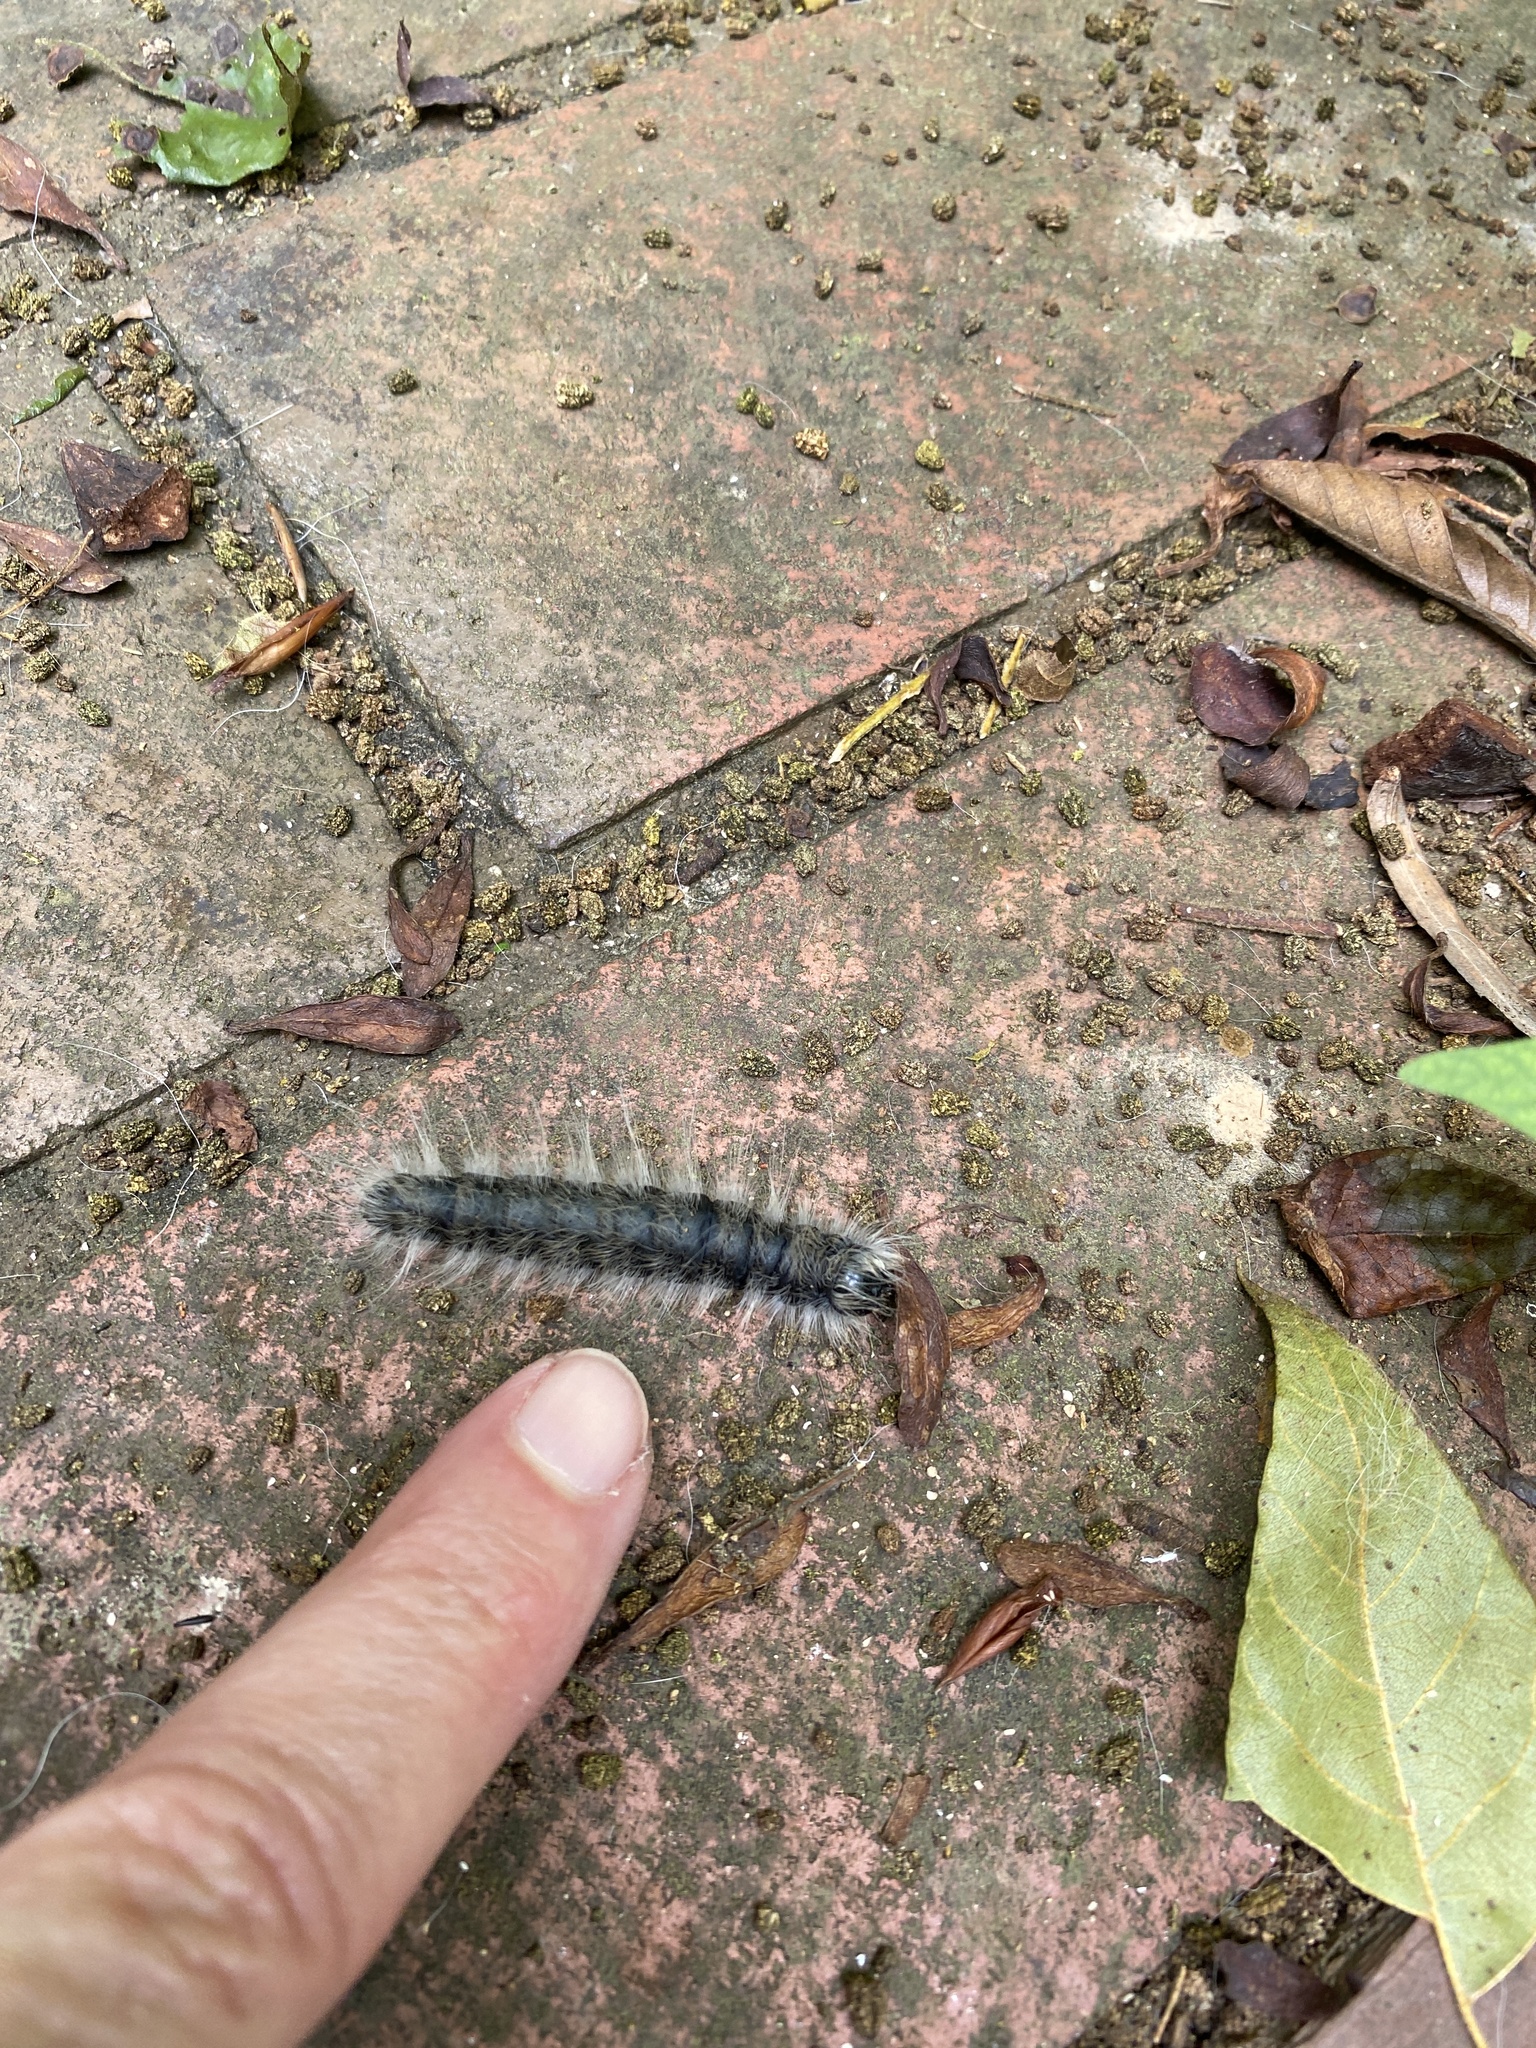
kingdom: Animalia
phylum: Arthropoda
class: Insecta
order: Lepidoptera
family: Notodontidae
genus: Datana
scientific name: Datana integerrima
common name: Walnut caterpillar
